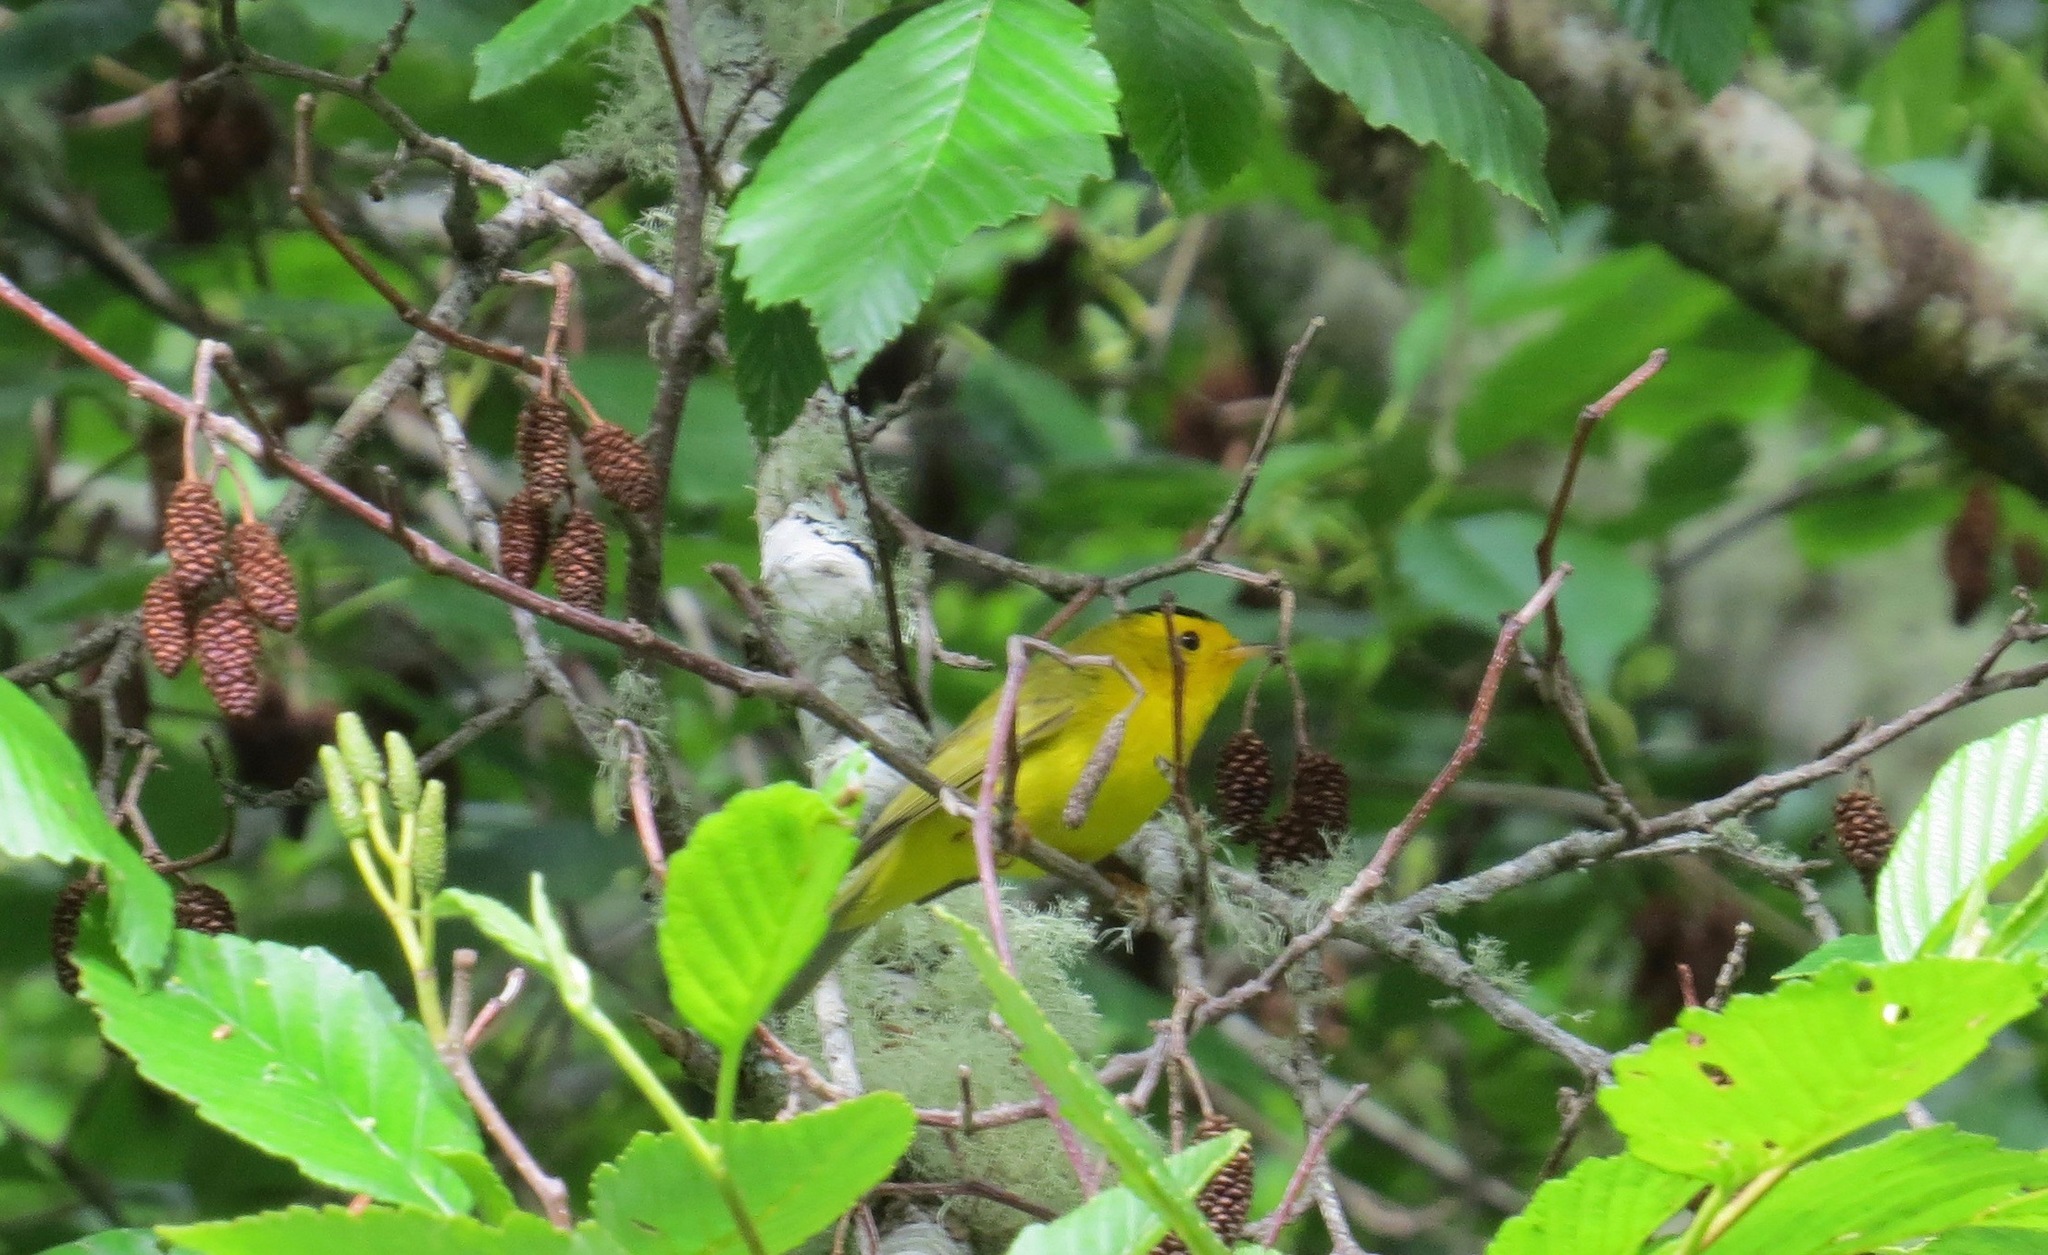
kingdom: Animalia
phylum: Chordata
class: Aves
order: Passeriformes
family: Parulidae
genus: Cardellina
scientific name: Cardellina pusilla
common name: Wilson's warbler
